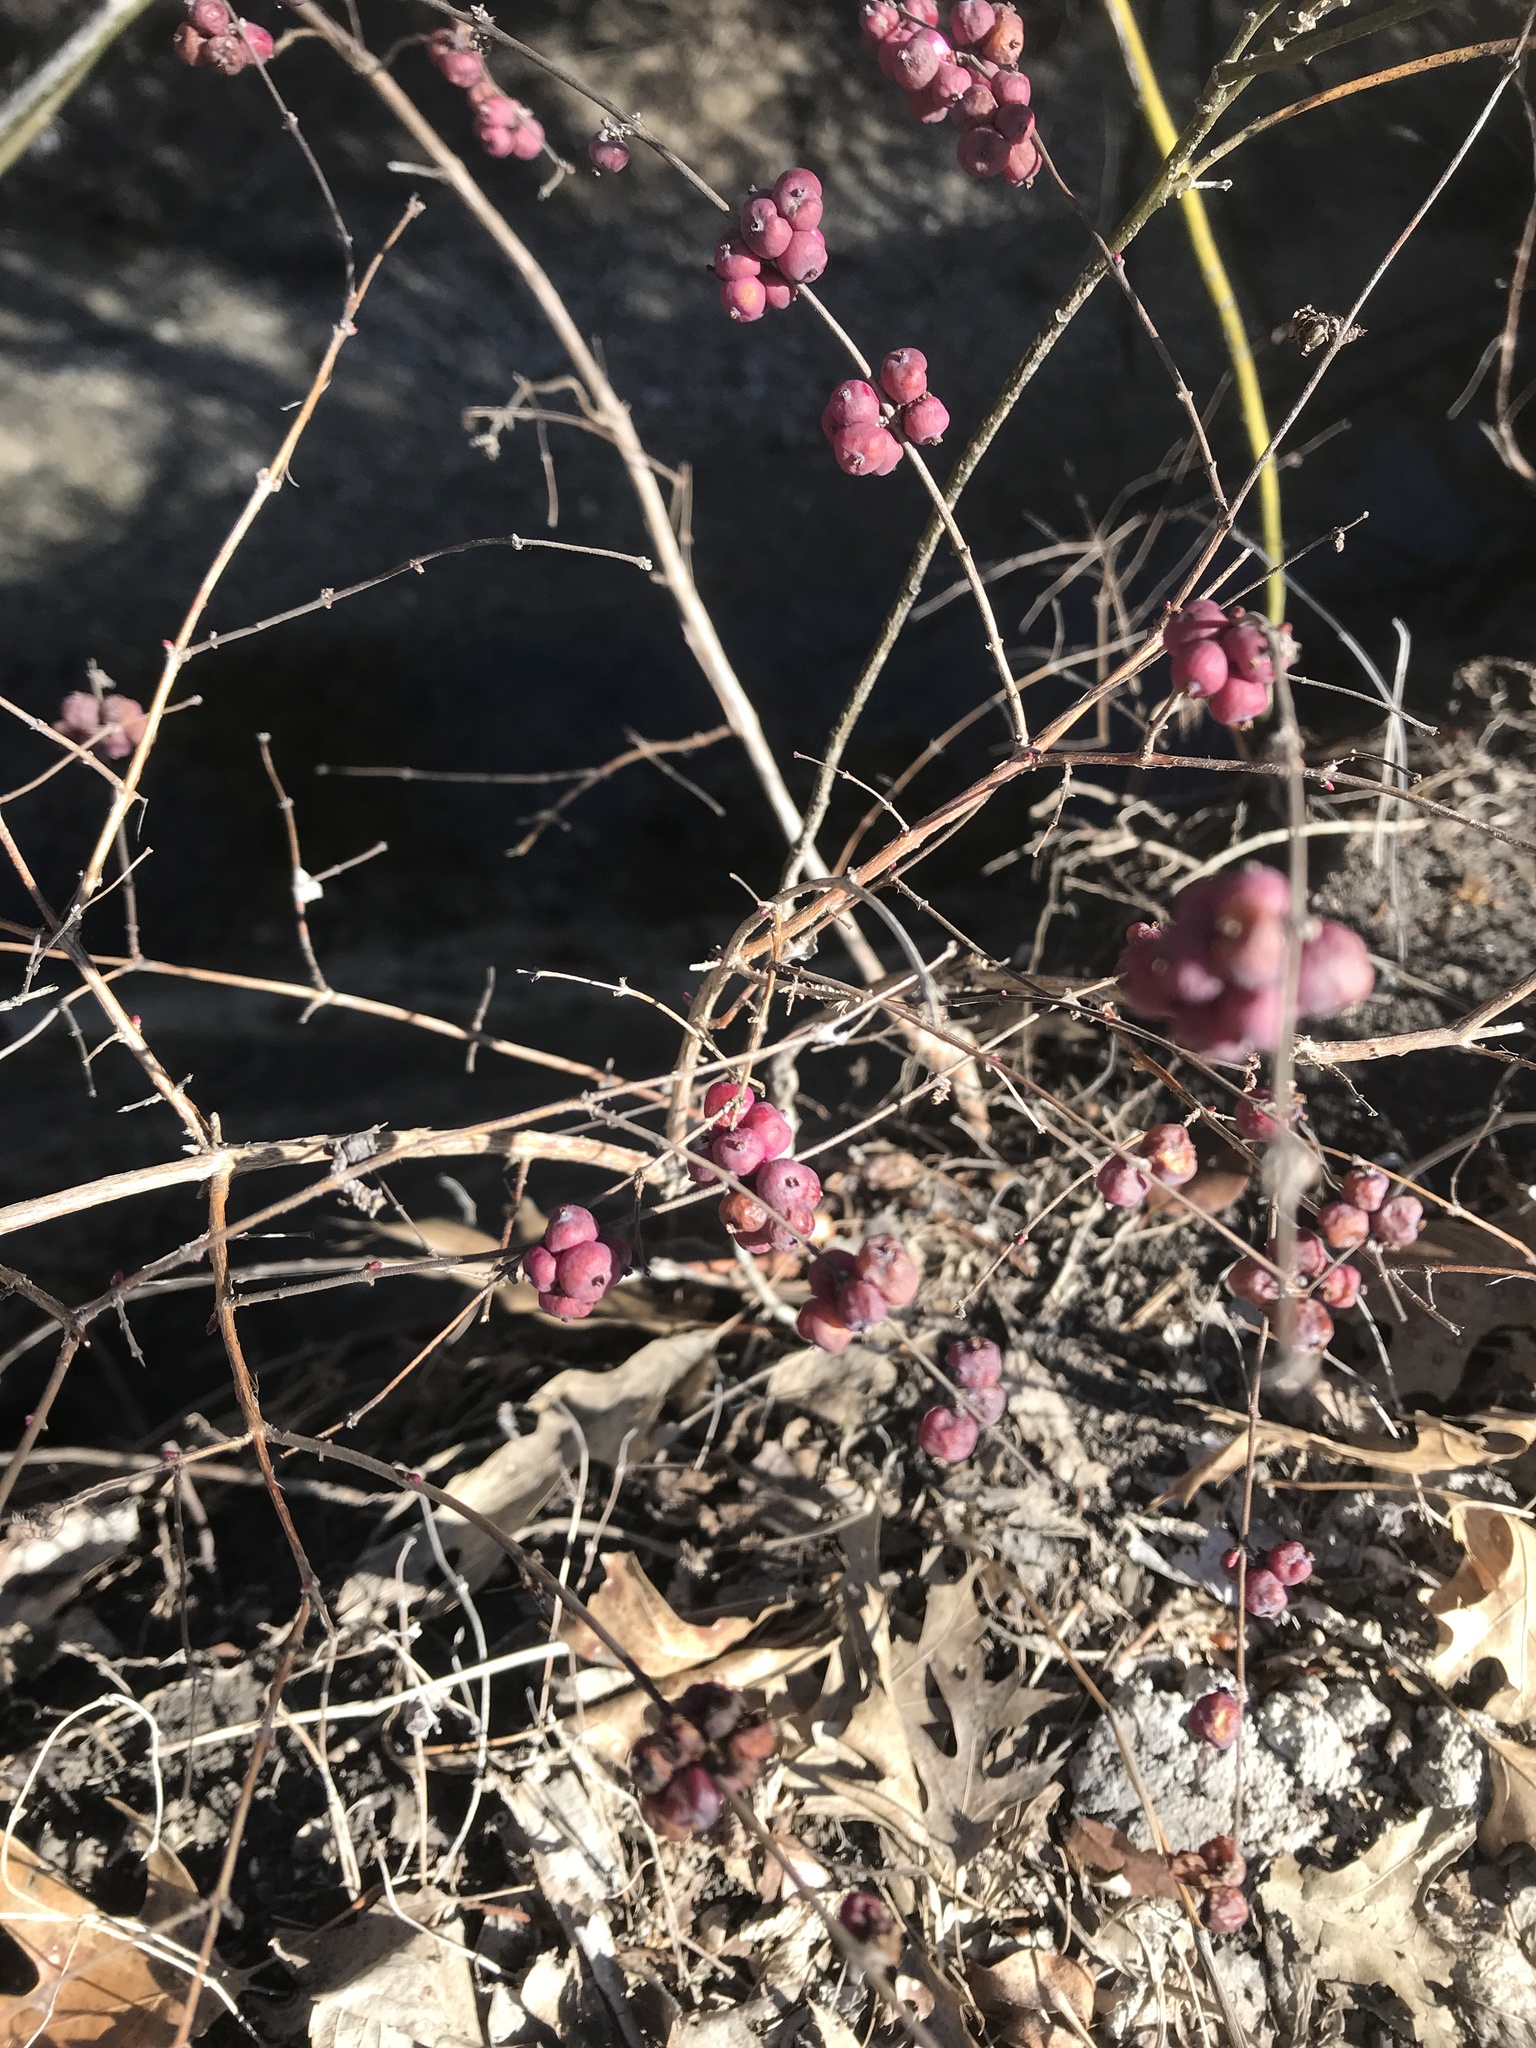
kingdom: Plantae
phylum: Tracheophyta
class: Magnoliopsida
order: Dipsacales
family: Caprifoliaceae
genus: Symphoricarpos
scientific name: Symphoricarpos orbiculatus
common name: Coralberry
